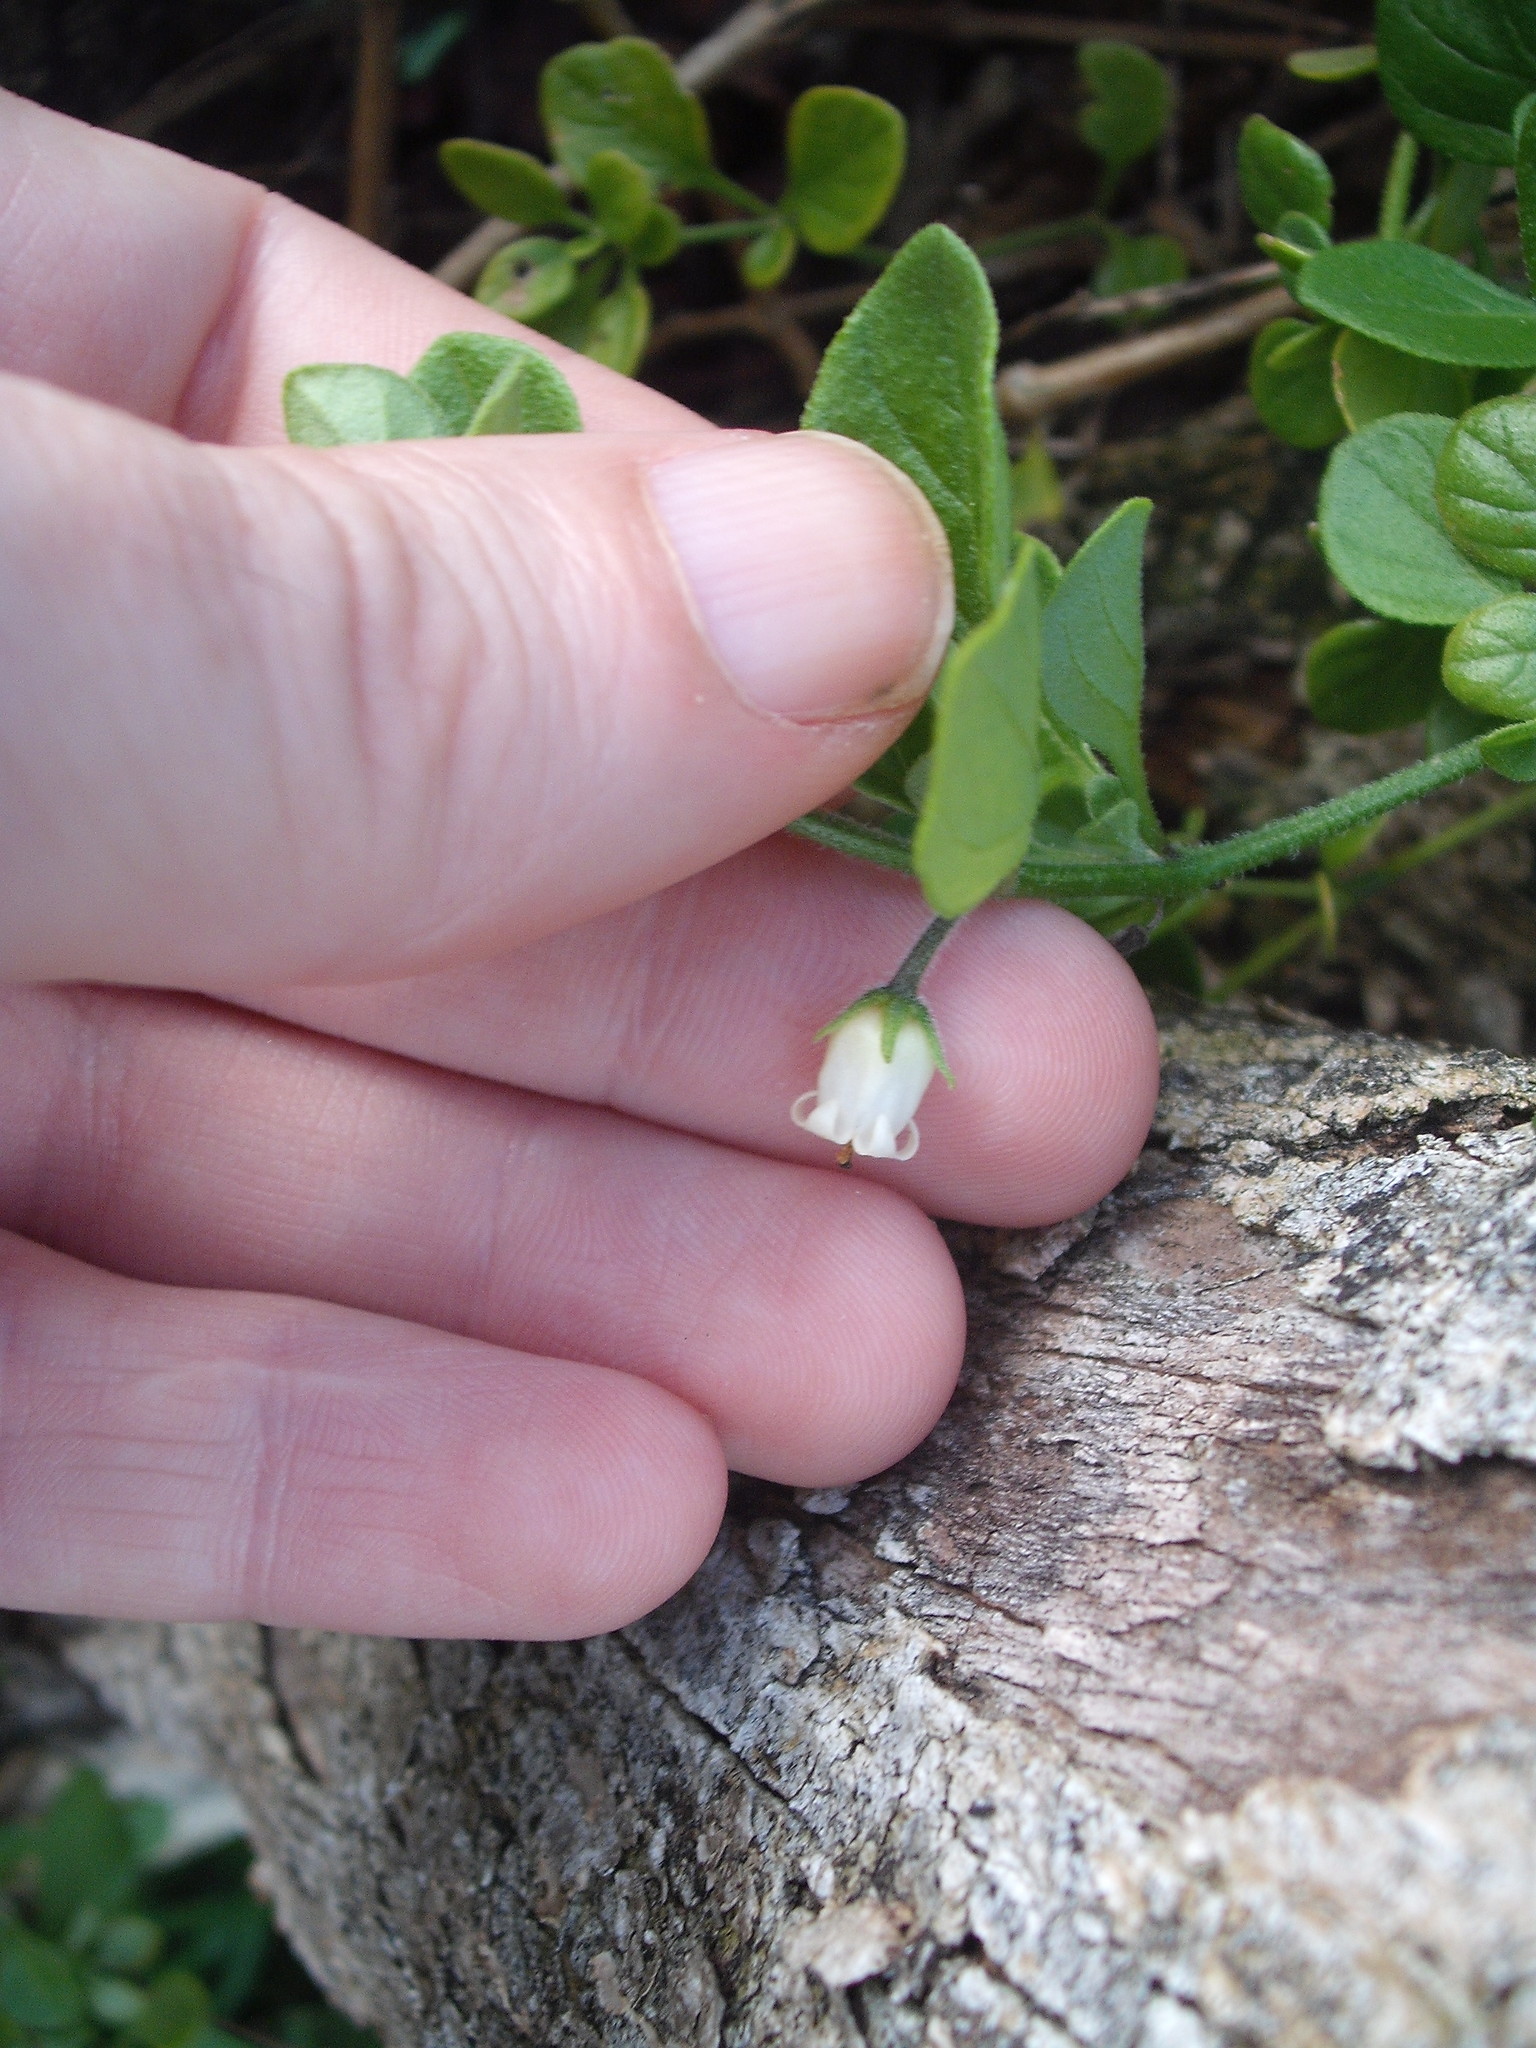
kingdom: Plantae
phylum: Tracheophyta
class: Magnoliopsida
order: Solanales
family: Solanaceae
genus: Salpichroa
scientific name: Salpichroa origanifolia
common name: Lily-of-the-valley-vine
